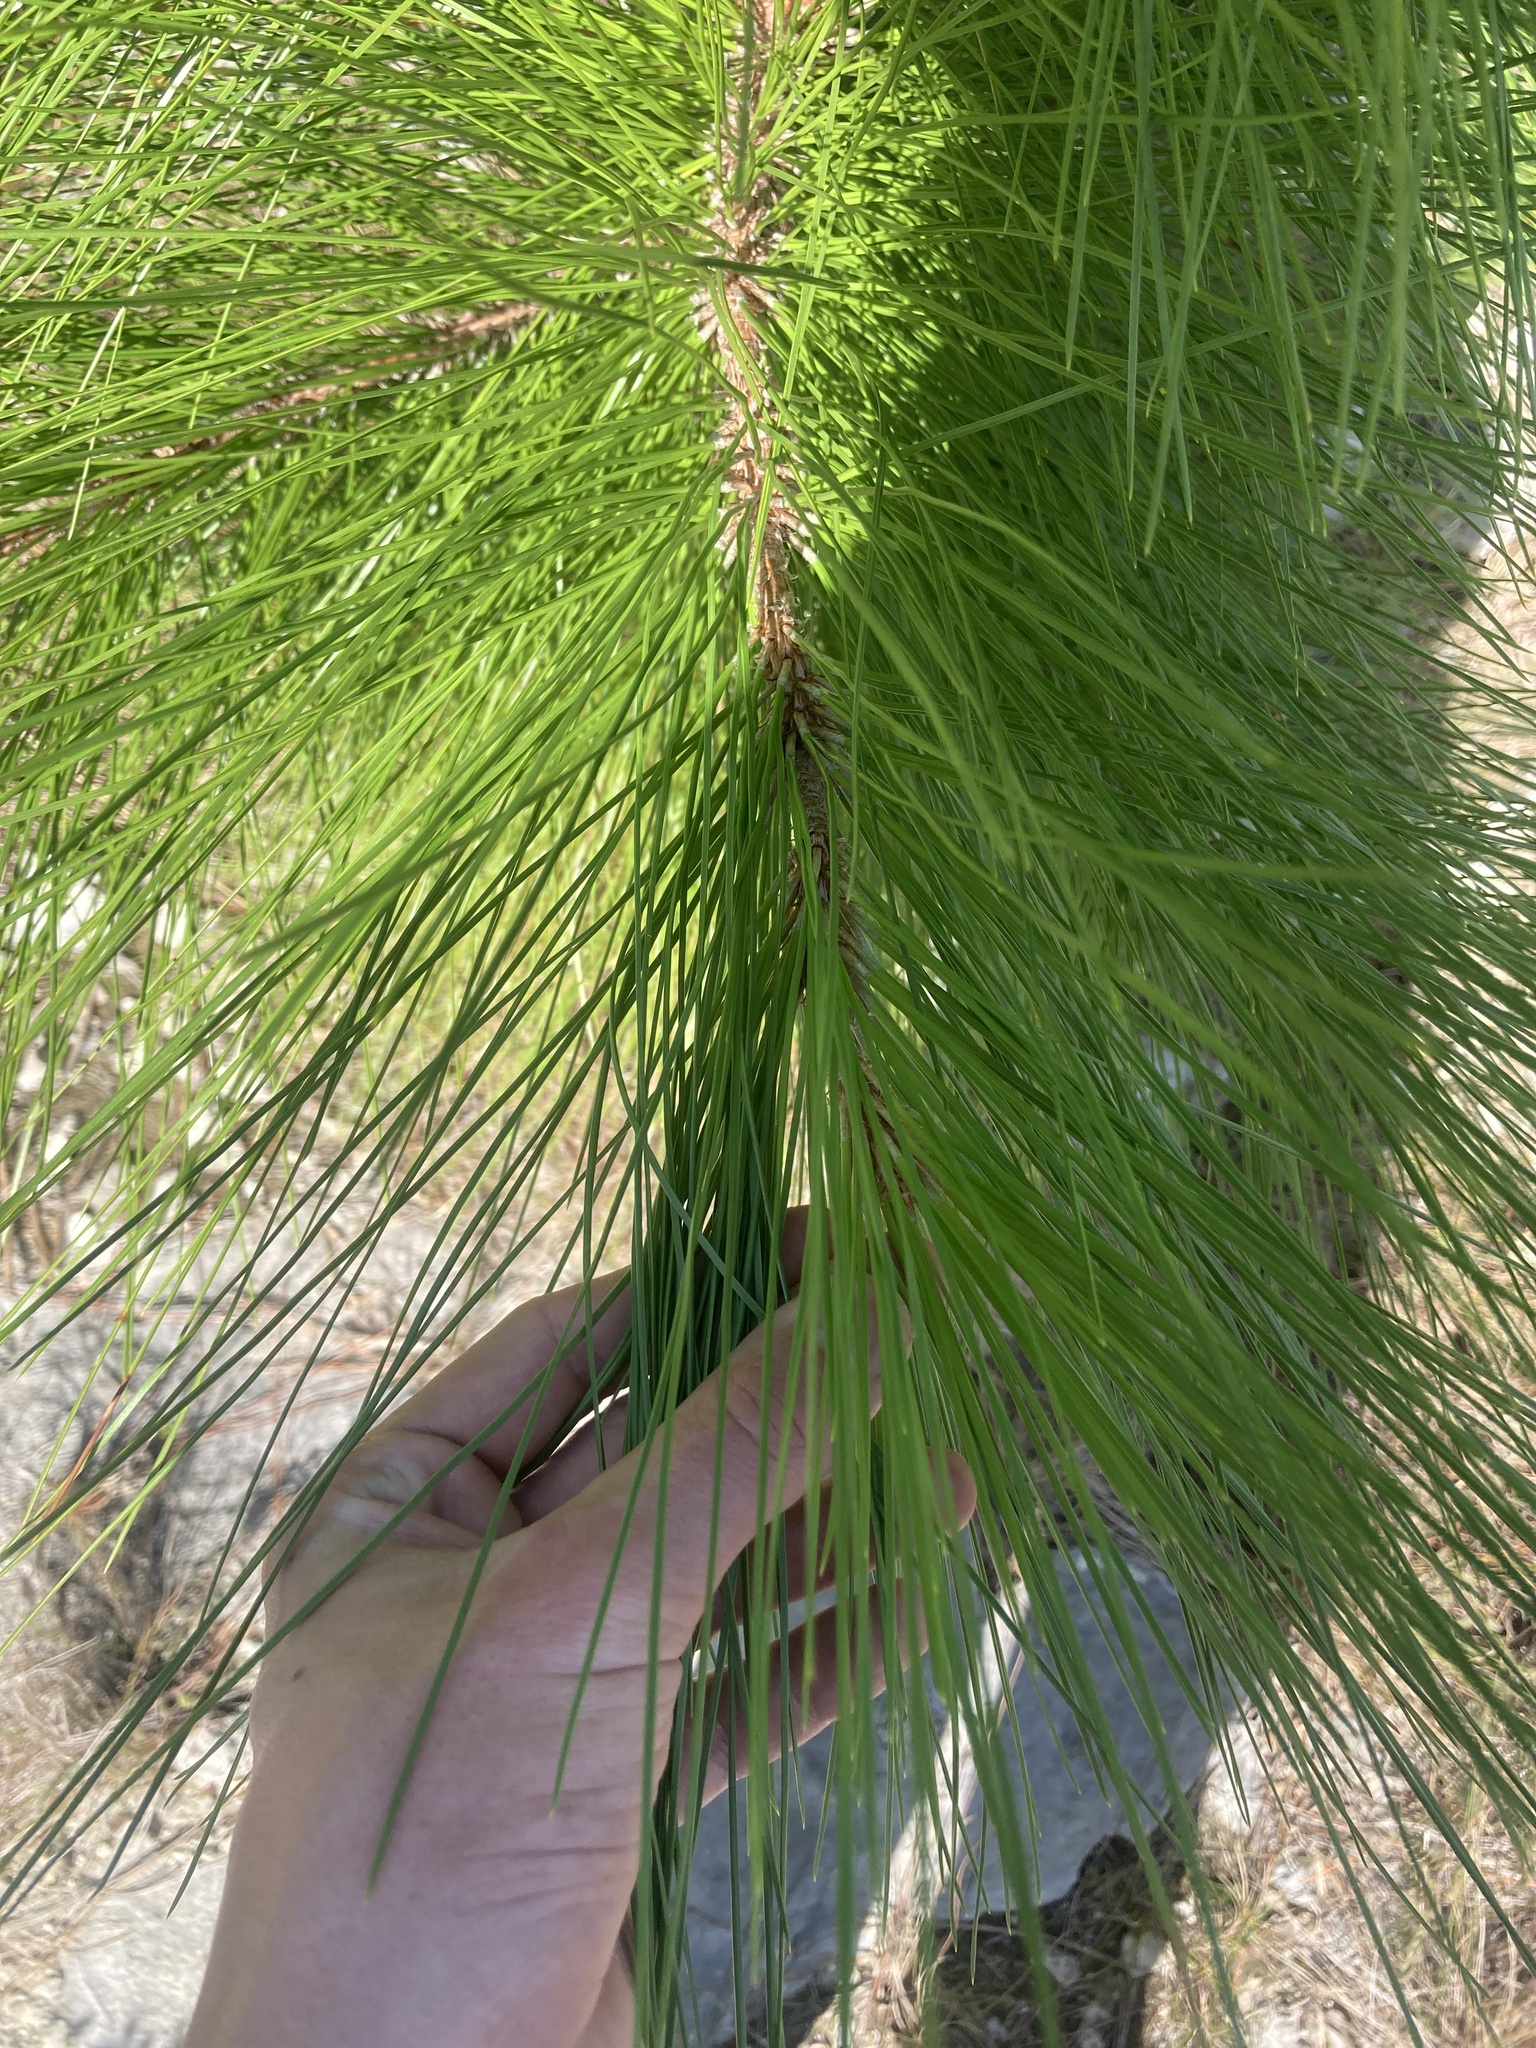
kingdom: Plantae
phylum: Tracheophyta
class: Pinopsida
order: Pinales
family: Pinaceae
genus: Pinus
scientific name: Pinus elliottii
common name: Slash pine
